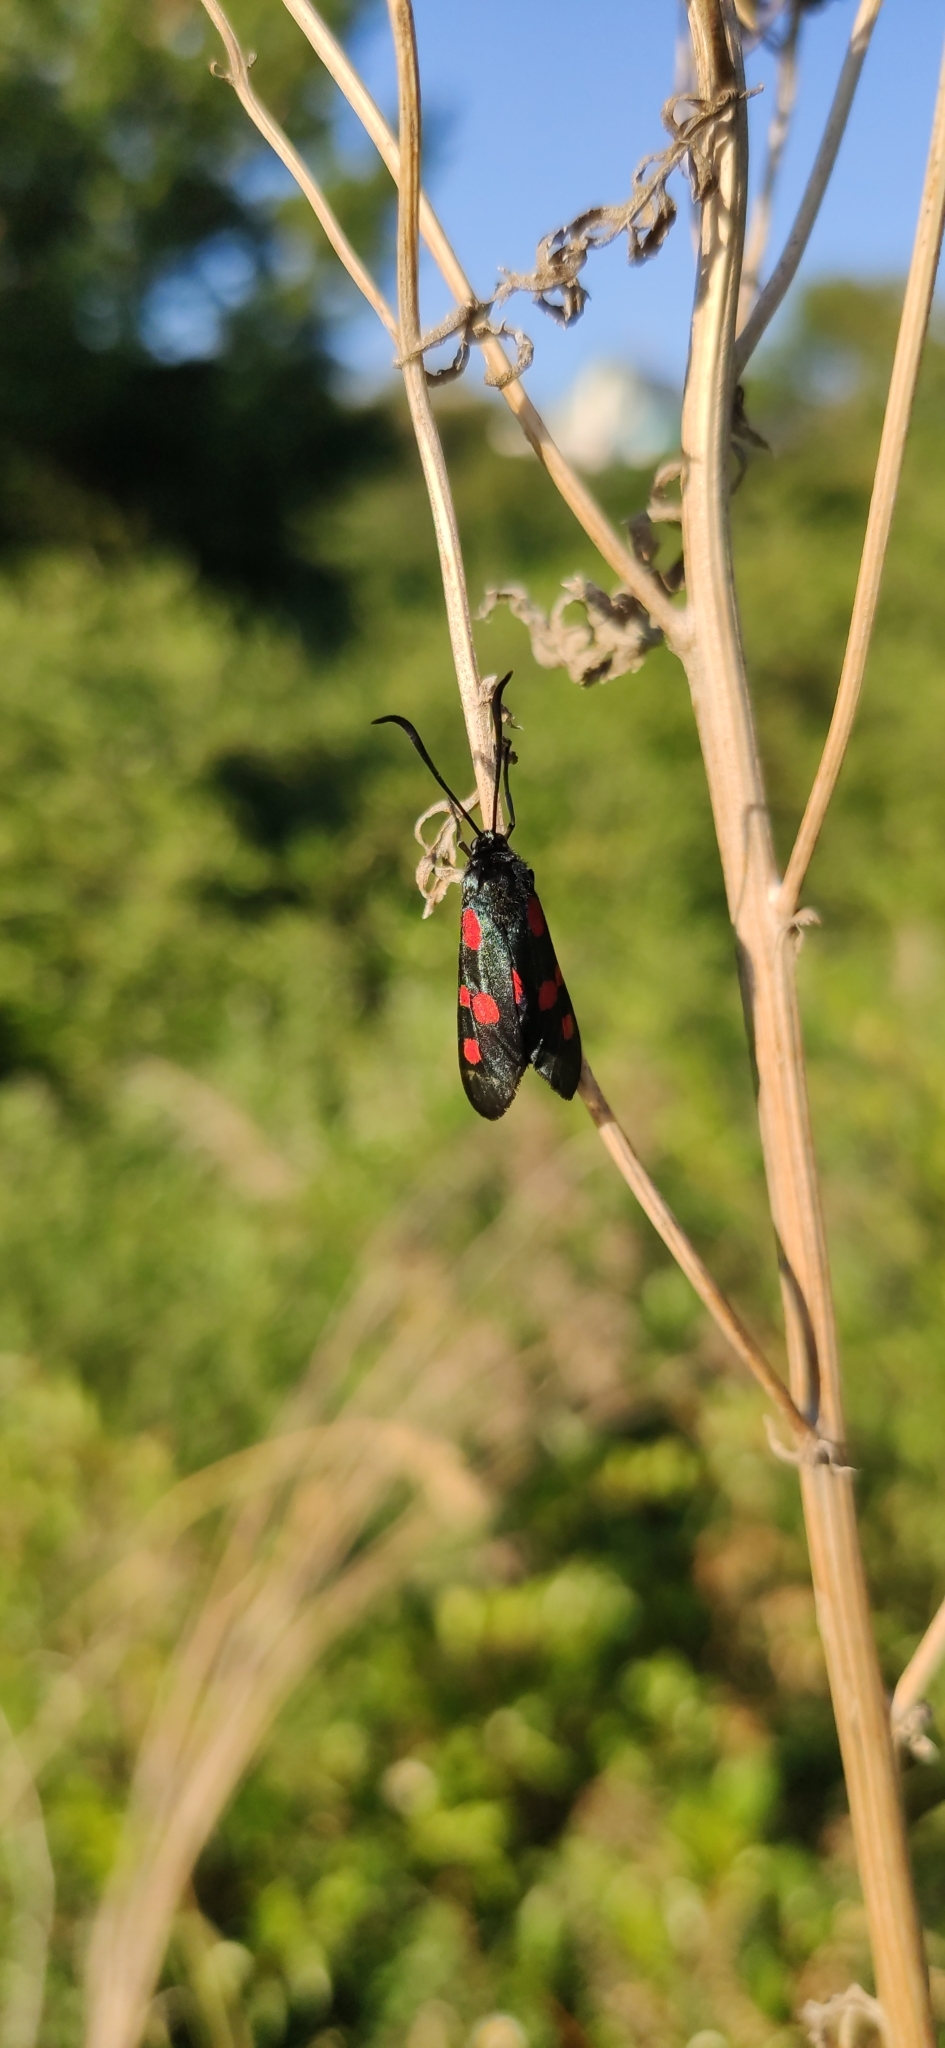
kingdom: Animalia
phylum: Arthropoda
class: Insecta
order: Lepidoptera
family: Zygaenidae
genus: Zygaena
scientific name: Zygaena lonicerae
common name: Narrow-bordered five-spot burnet
